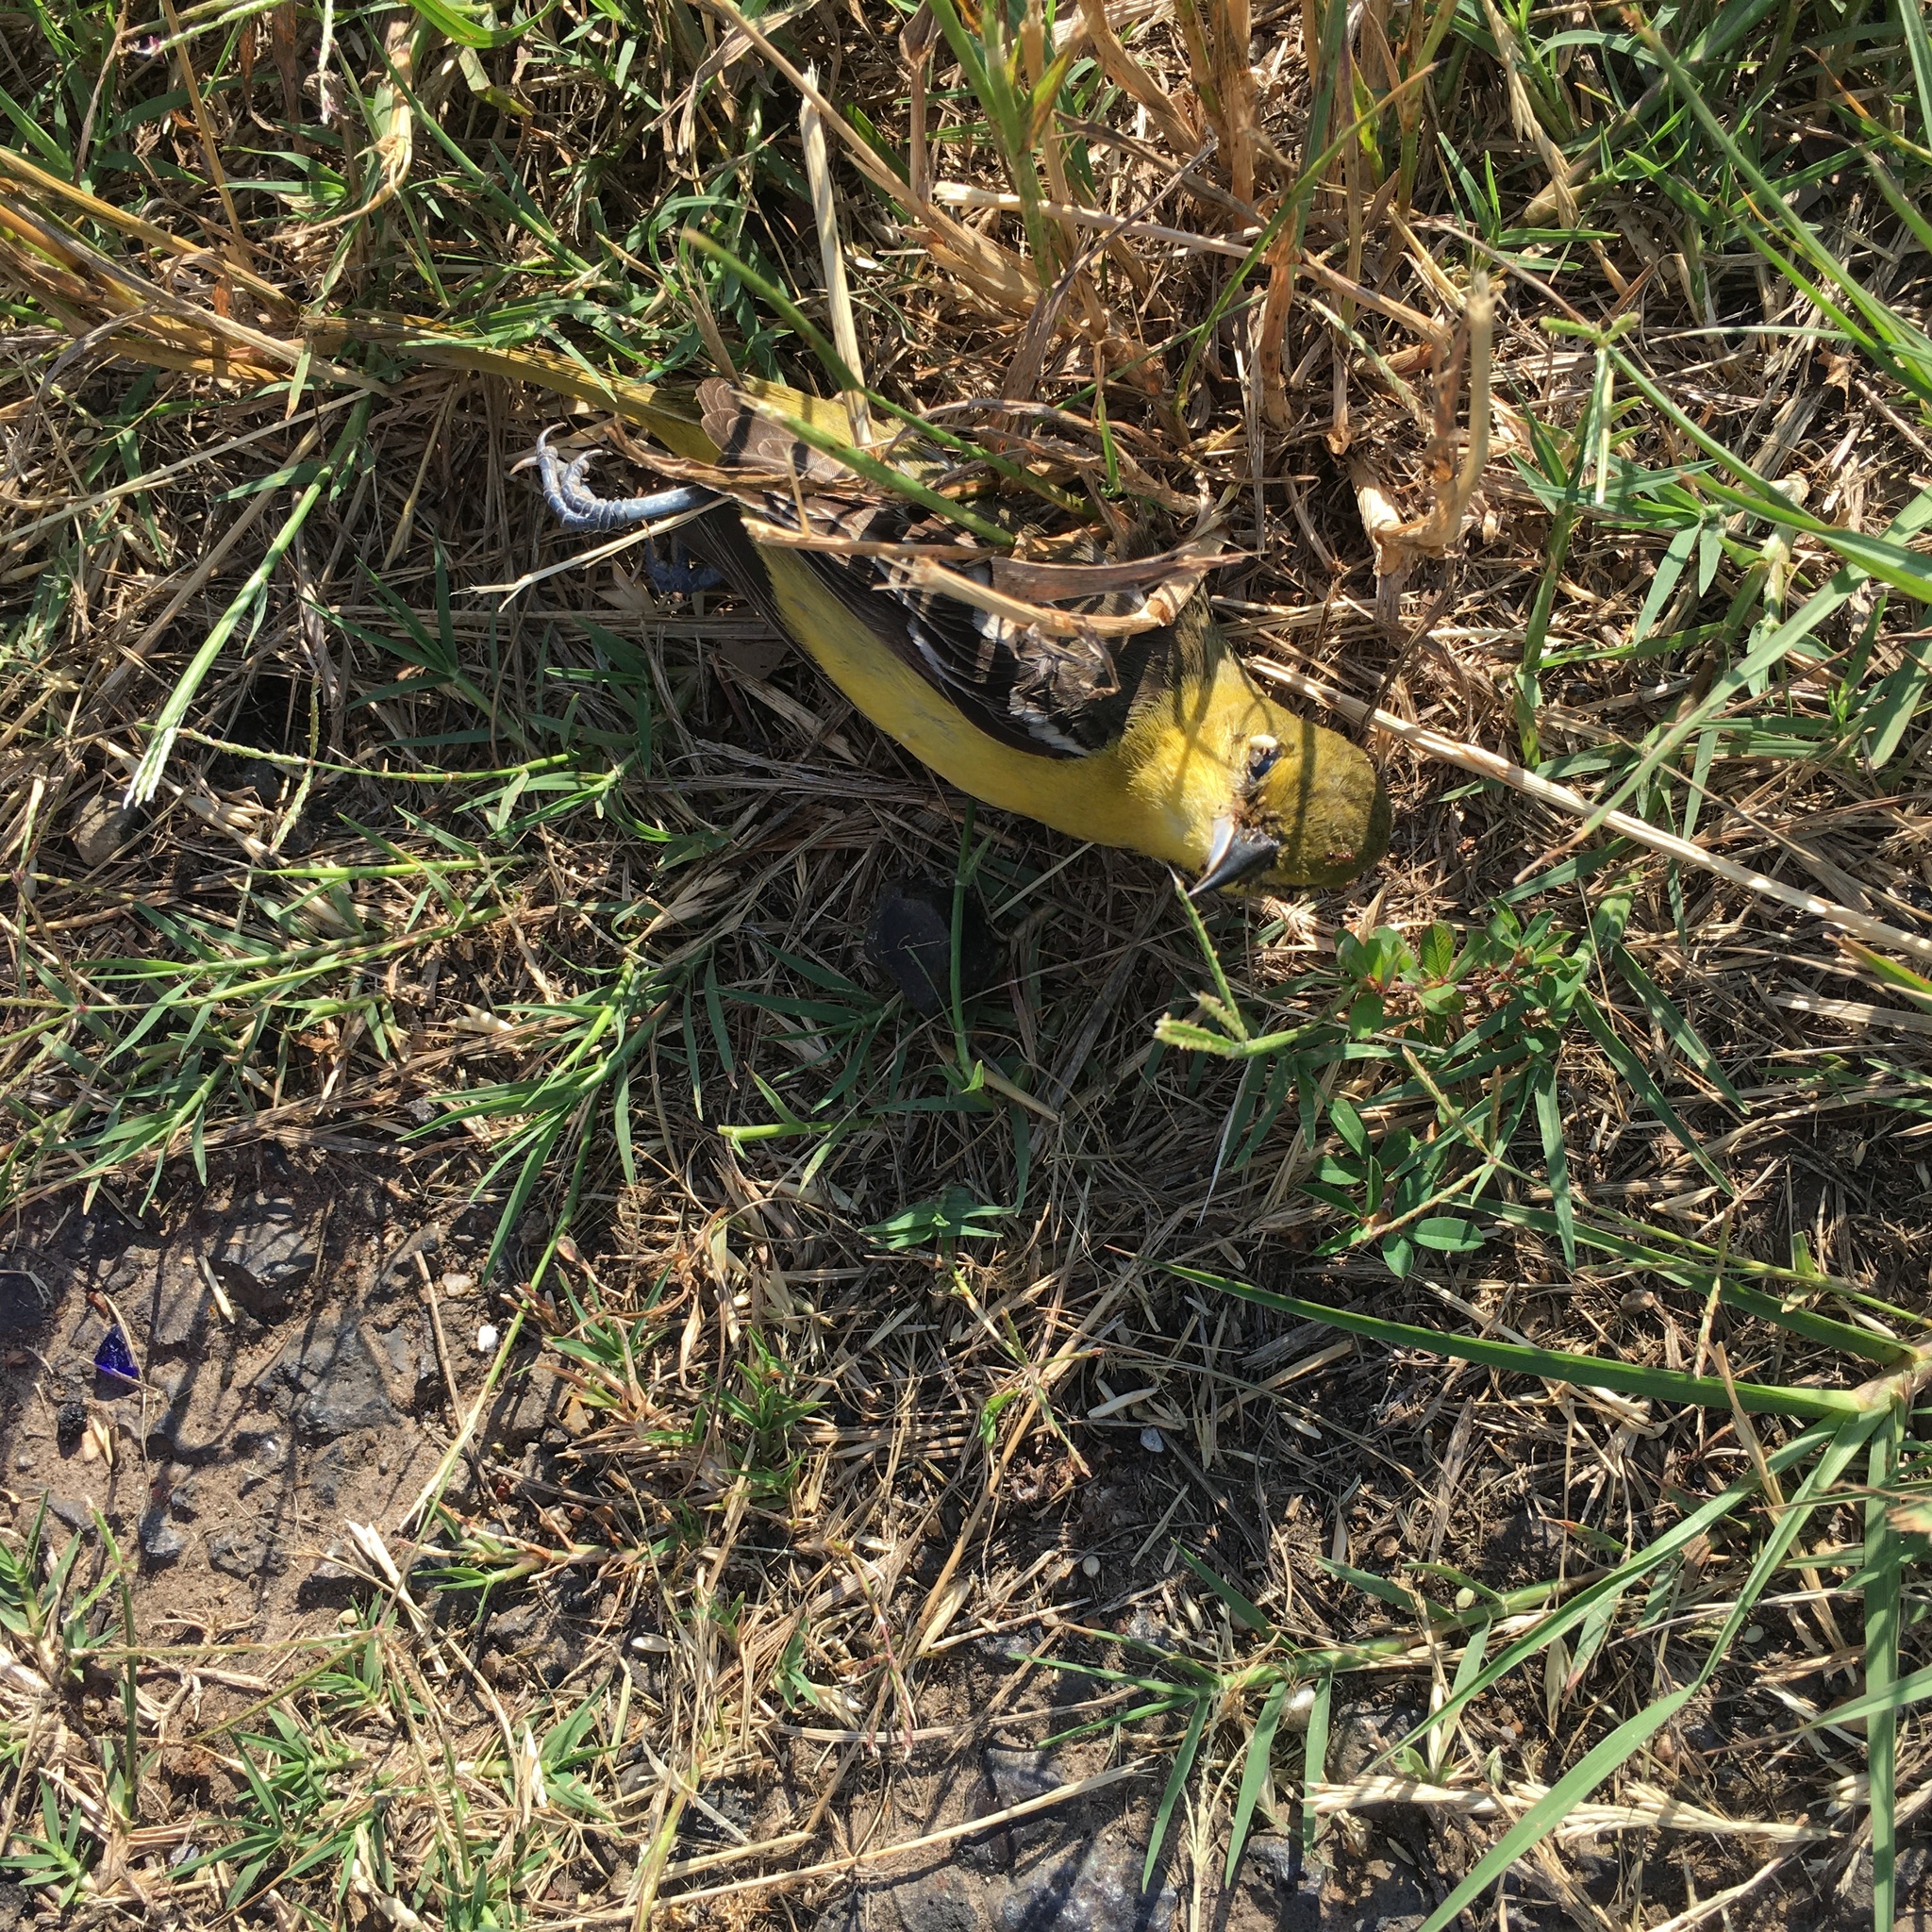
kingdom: Animalia
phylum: Chordata
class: Aves
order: Passeriformes
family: Icteridae
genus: Icterus
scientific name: Icterus spurius
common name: Orchard oriole
